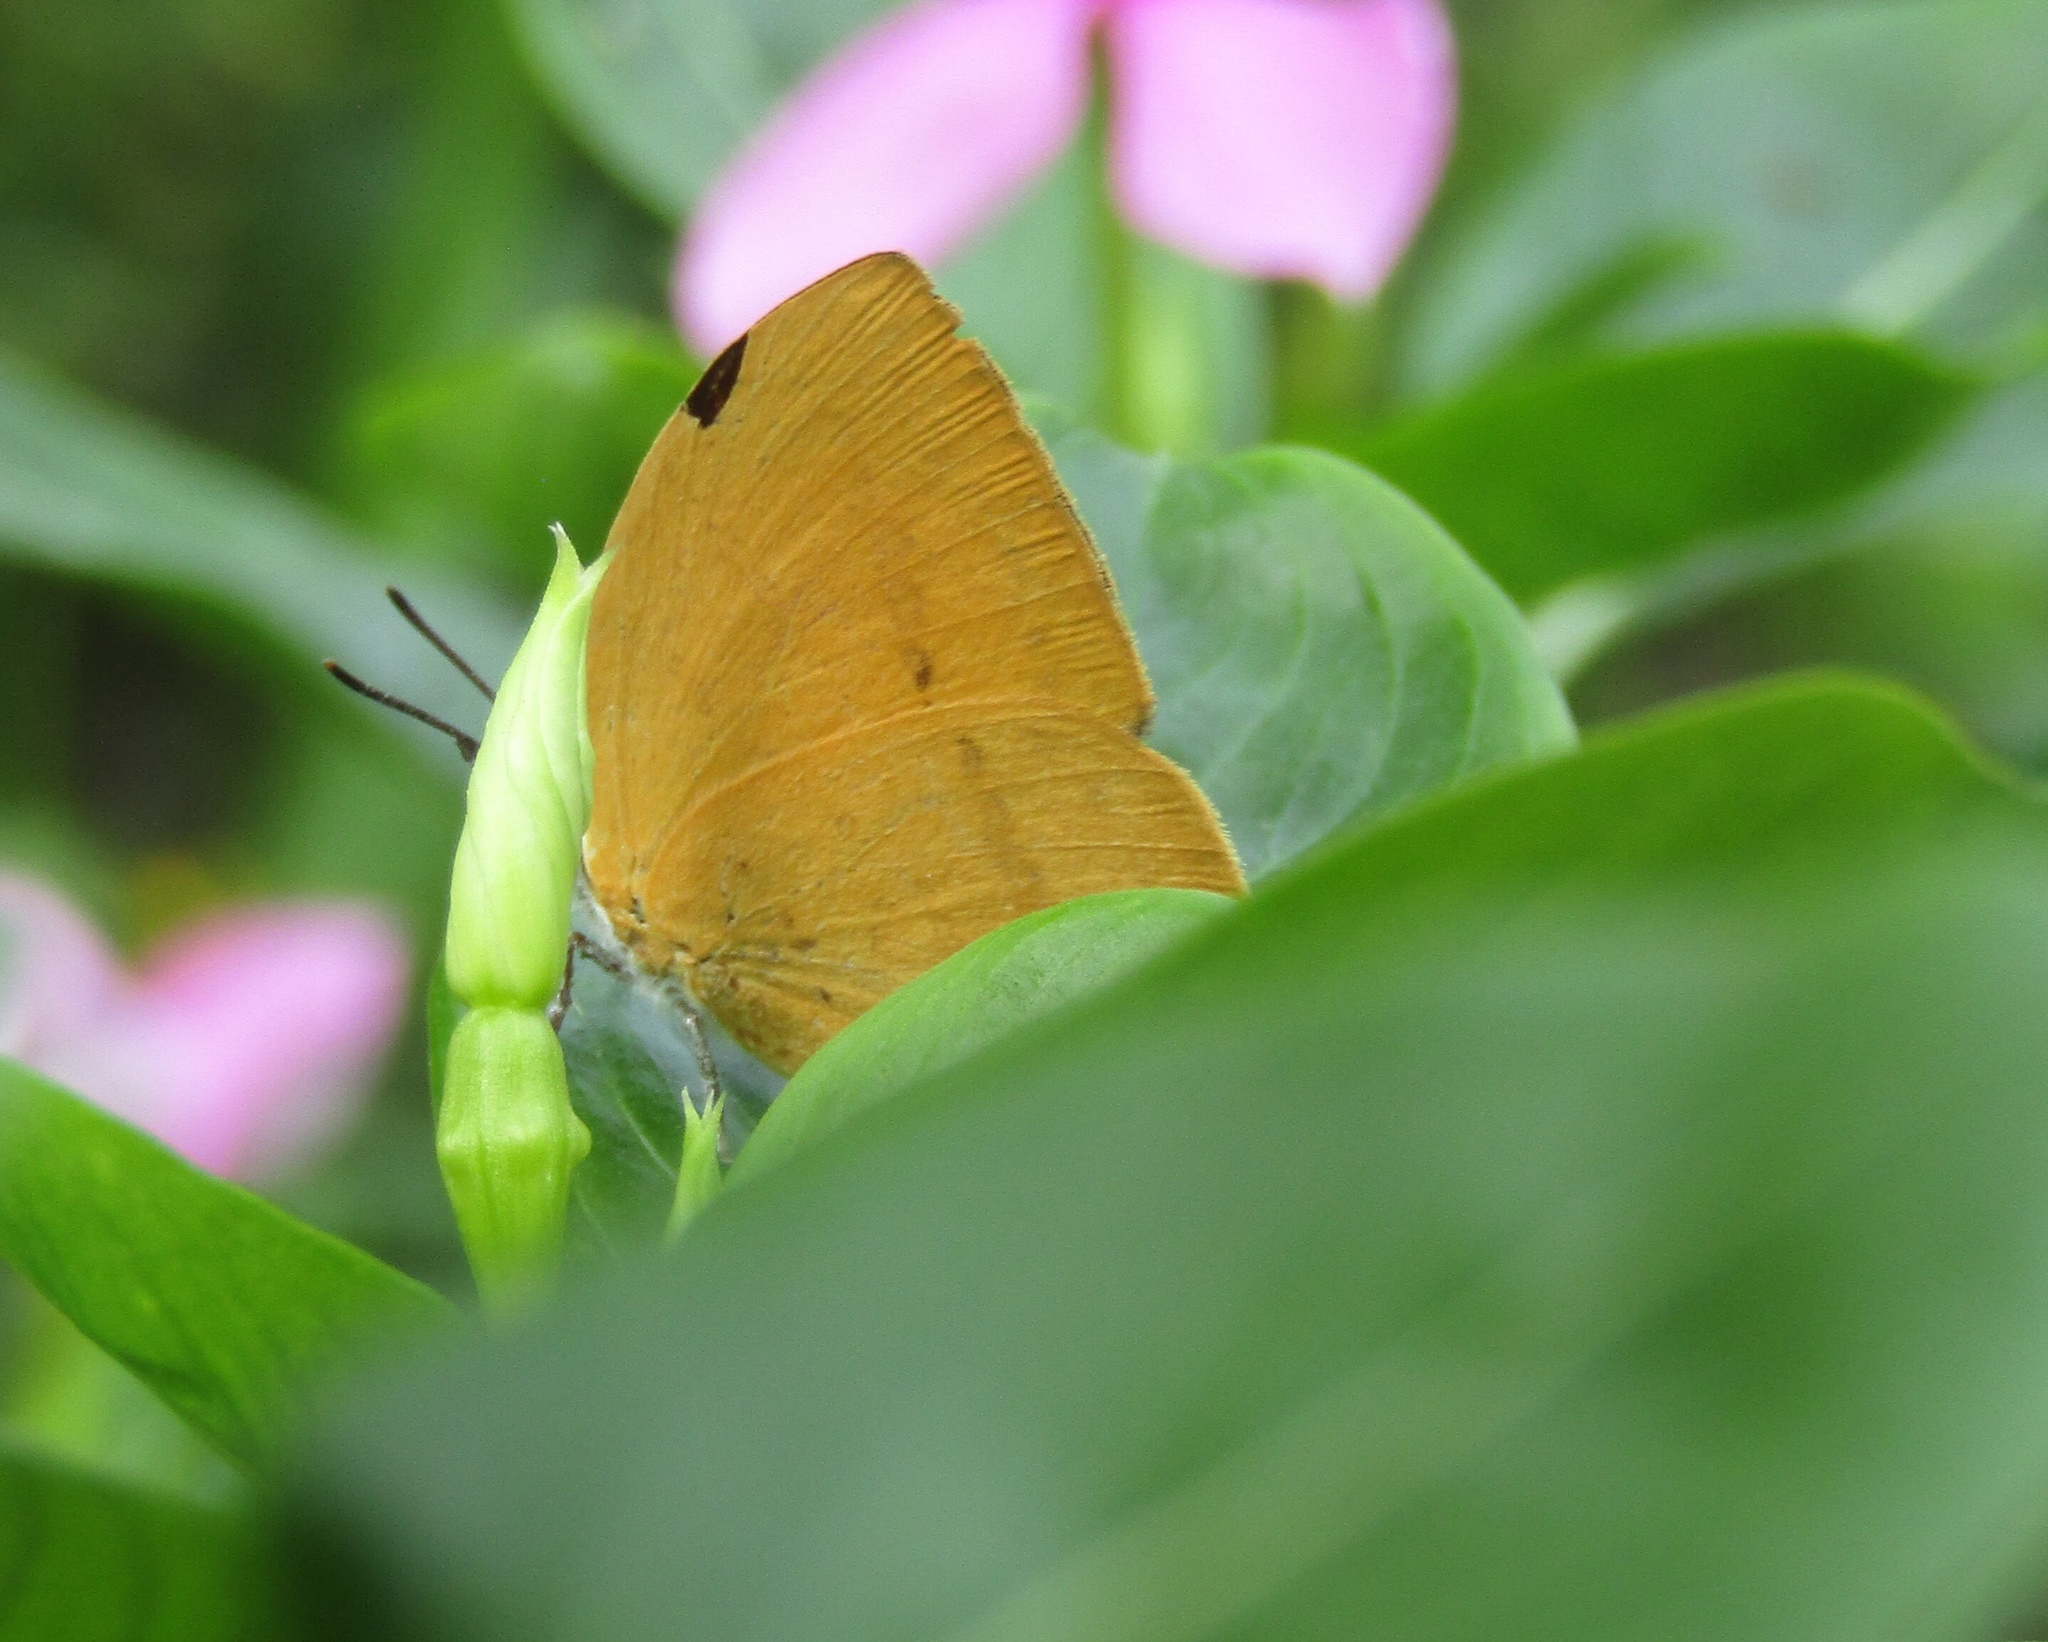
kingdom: Animalia
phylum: Arthropoda
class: Insecta
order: Lepidoptera
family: Lycaenidae
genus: Loxura
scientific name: Loxura atymnus
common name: Common yamfly
